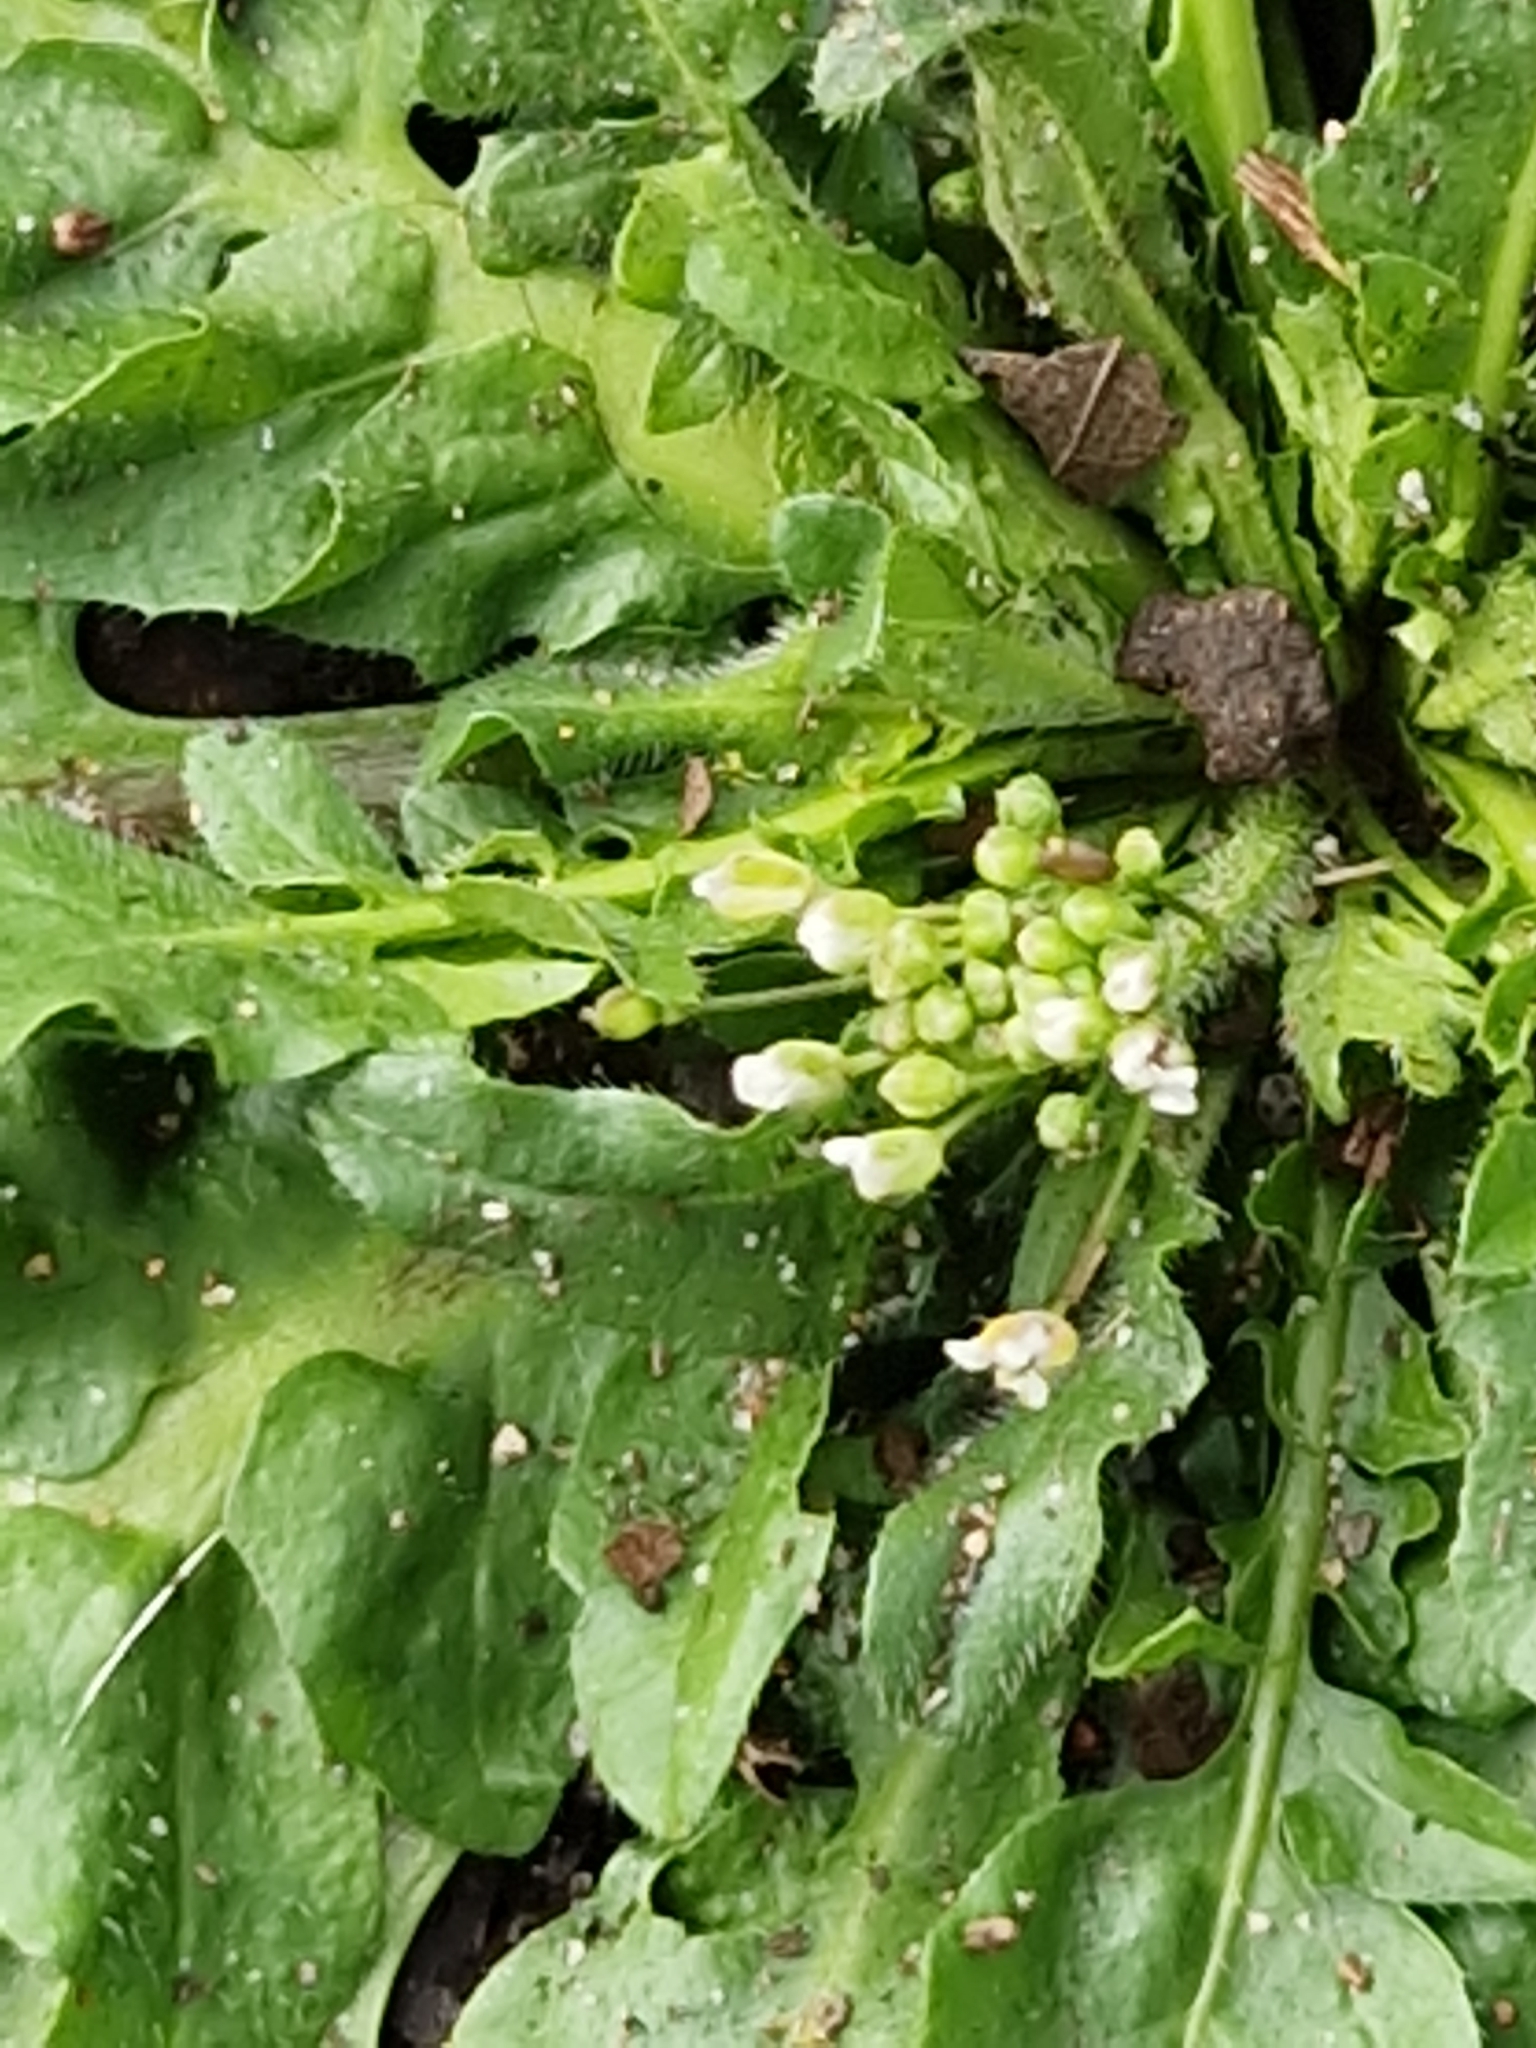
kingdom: Plantae
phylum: Tracheophyta
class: Magnoliopsida
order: Brassicales
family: Brassicaceae
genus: Capsella
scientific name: Capsella bursa-pastoris
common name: Shepherd's purse
